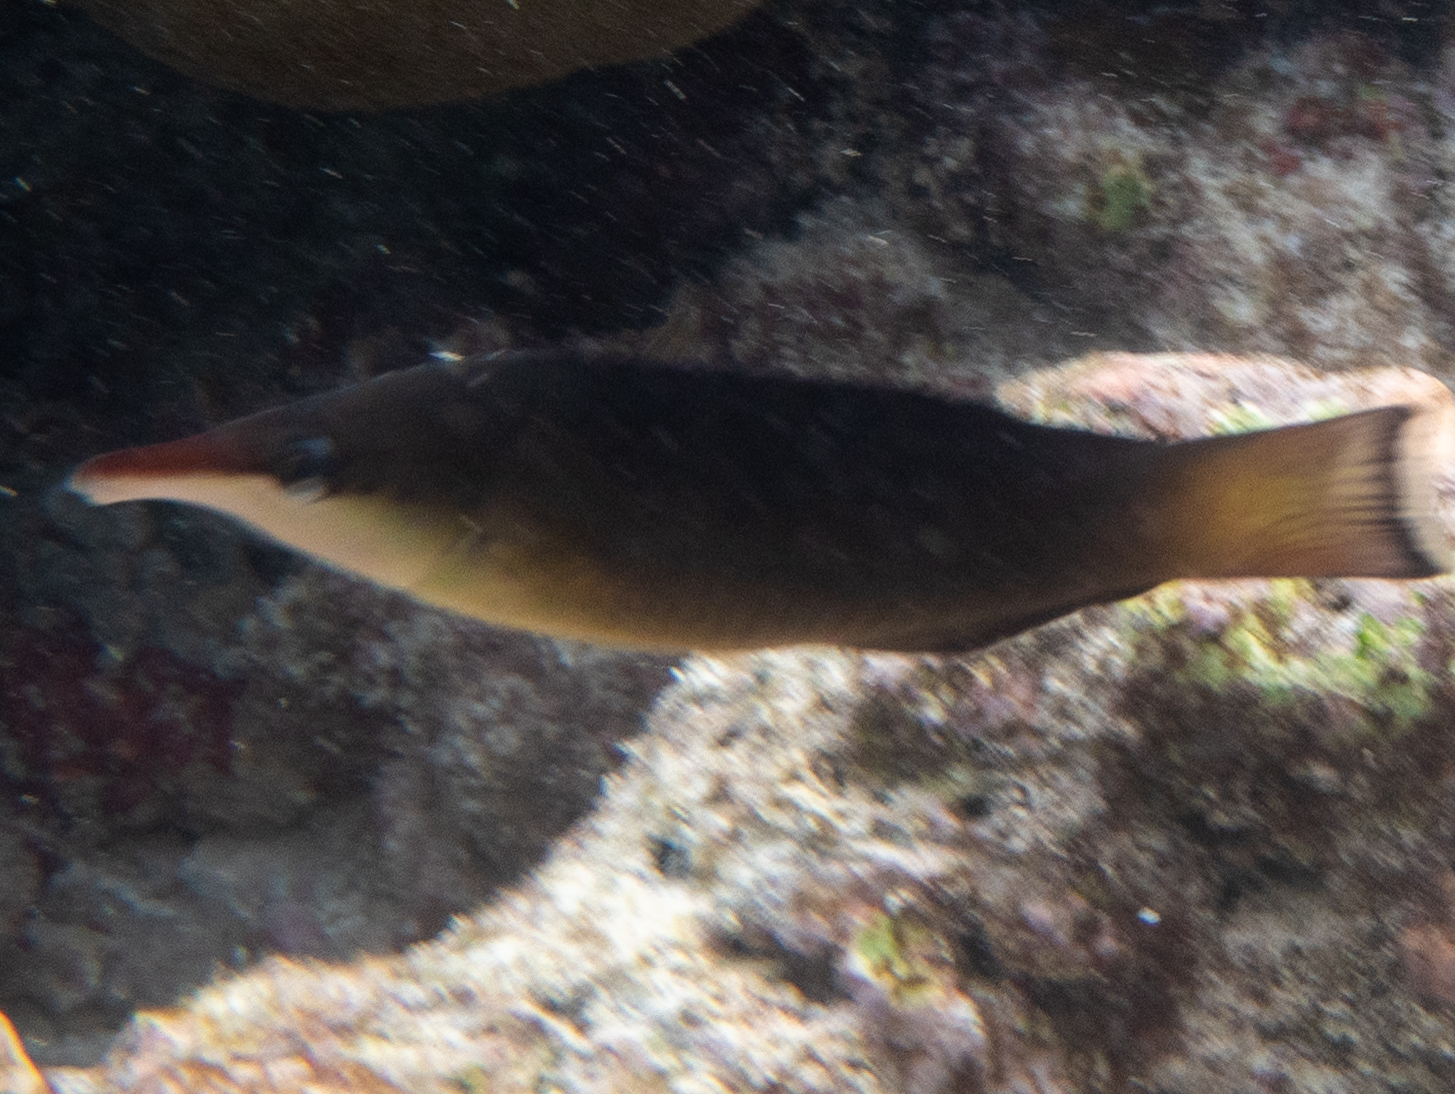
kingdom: Animalia
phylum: Chordata
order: Perciformes
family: Labridae
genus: Gomphosus
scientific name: Gomphosus caeruleus
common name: Bird wrasse
